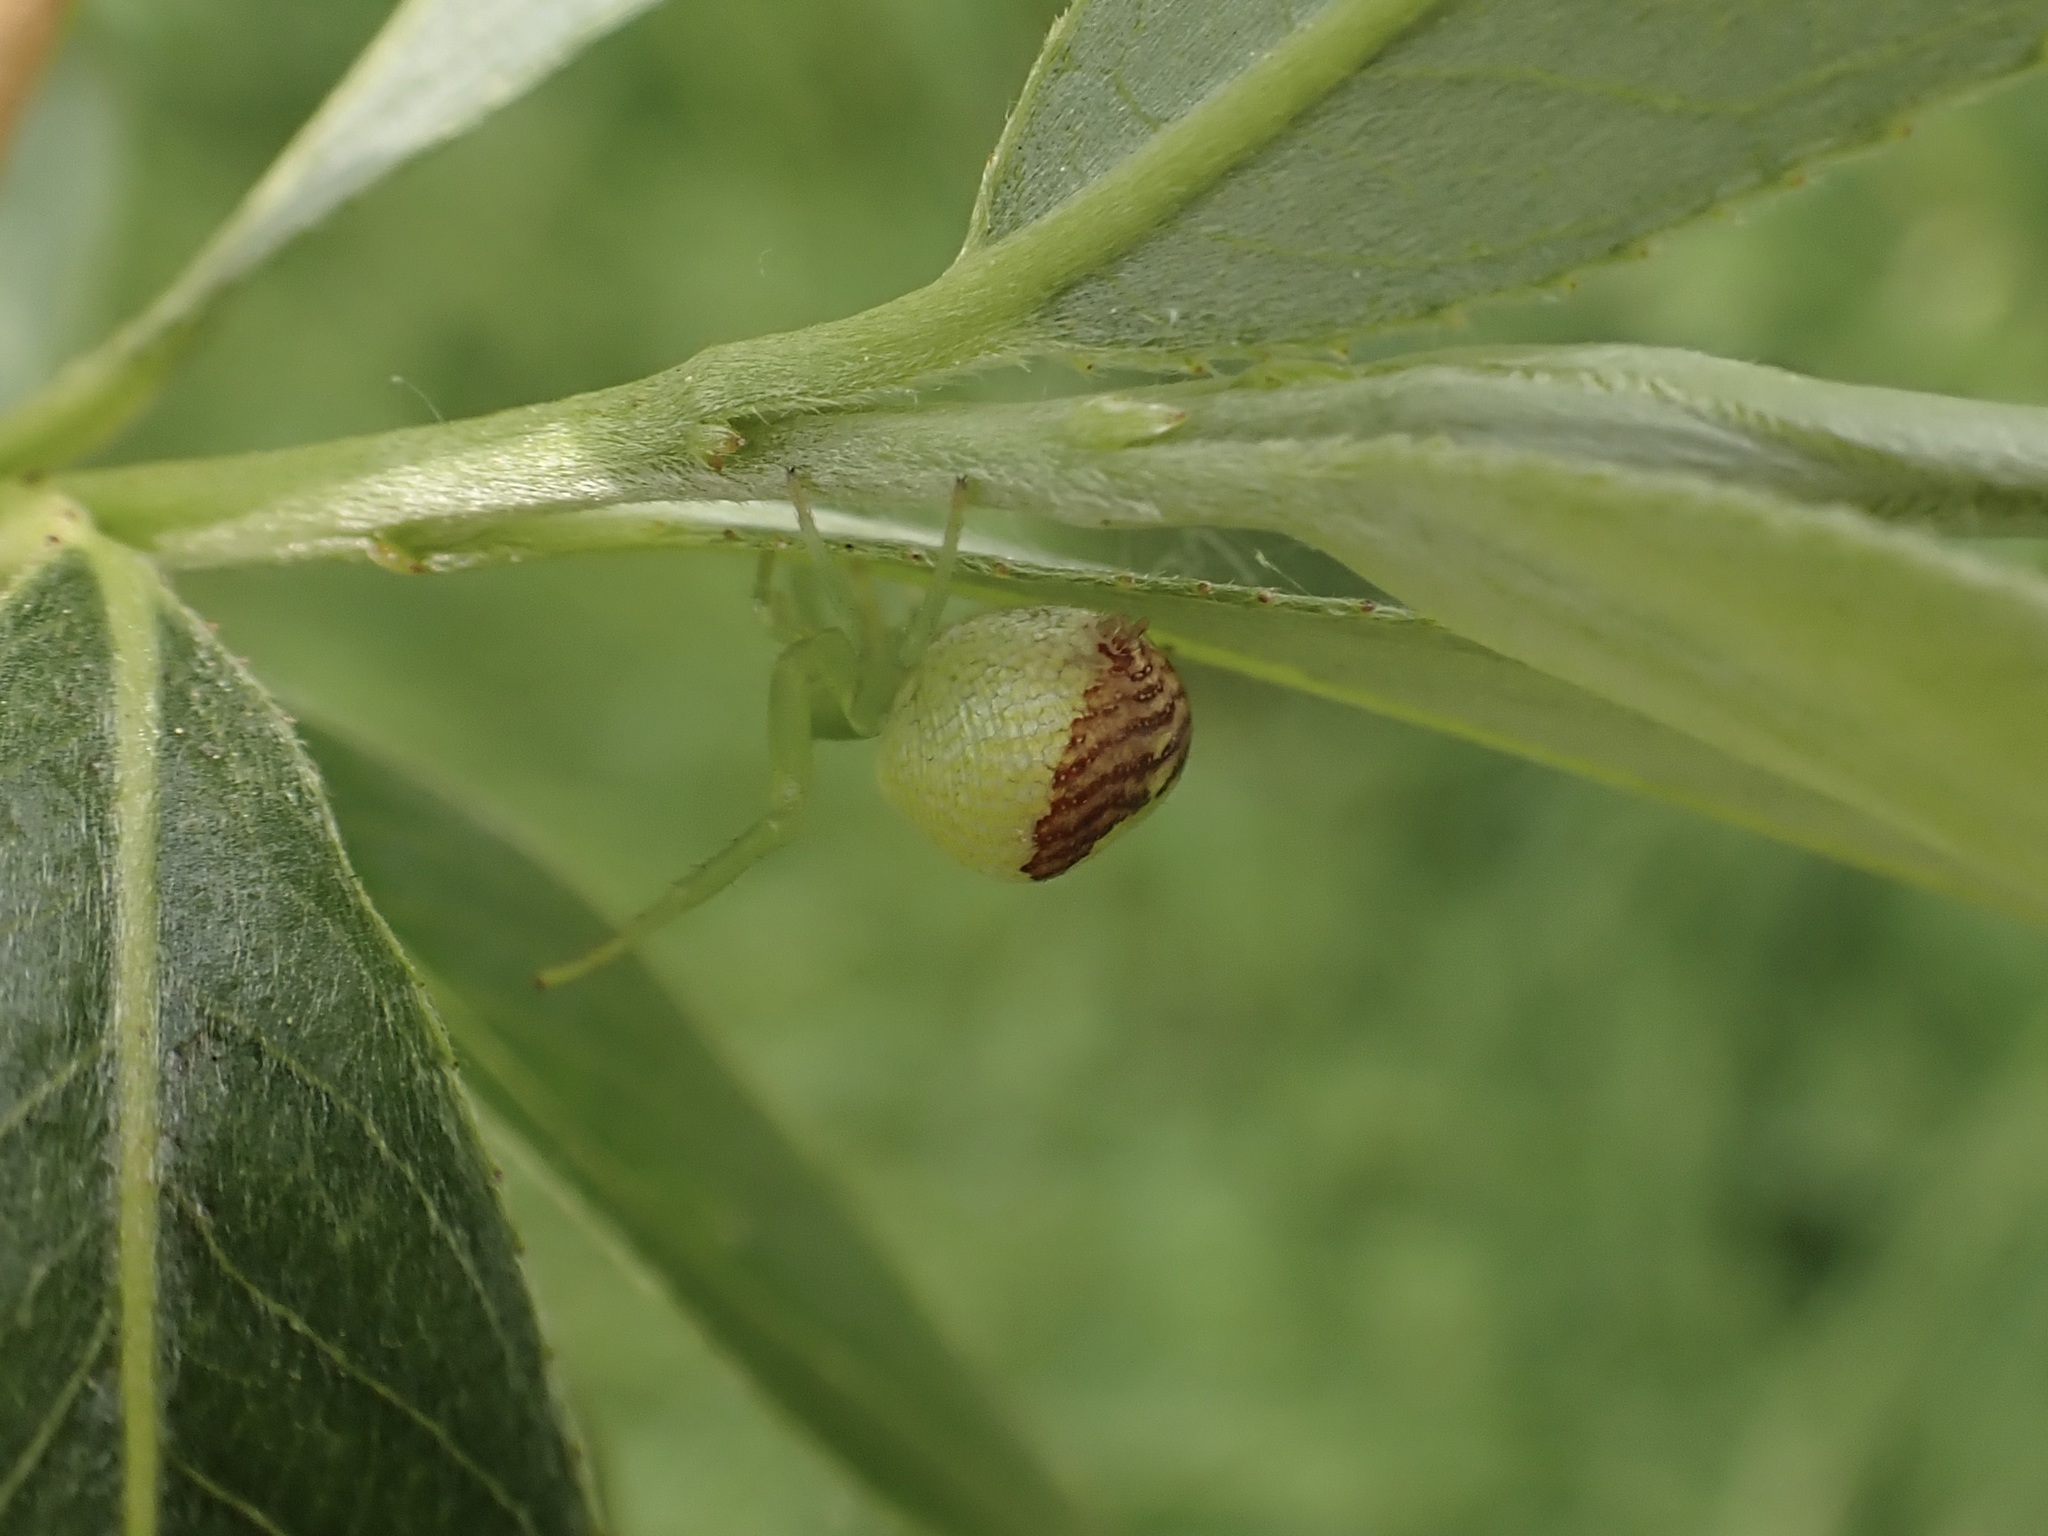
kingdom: Animalia
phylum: Arthropoda
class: Arachnida
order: Araneae
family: Thomisidae
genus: Ebrechtella
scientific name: Ebrechtella tricuspidata
